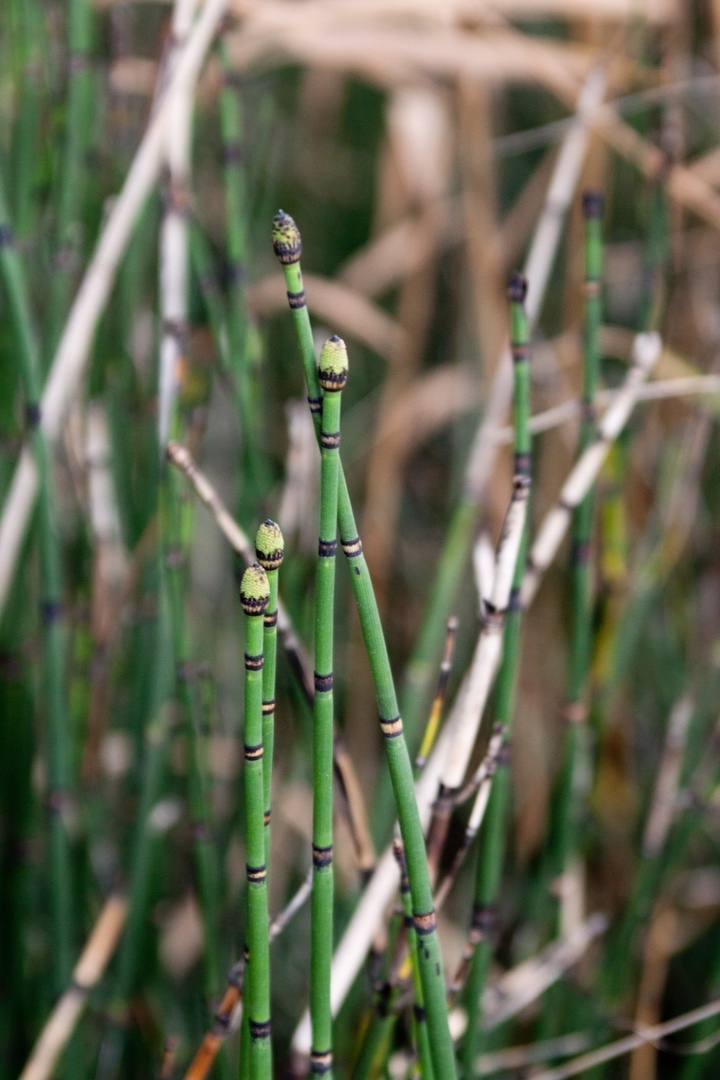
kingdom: Plantae
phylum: Tracheophyta
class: Polypodiopsida
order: Equisetales
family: Equisetaceae
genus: Equisetum
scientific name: Equisetum hyemale
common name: Rough horsetail
